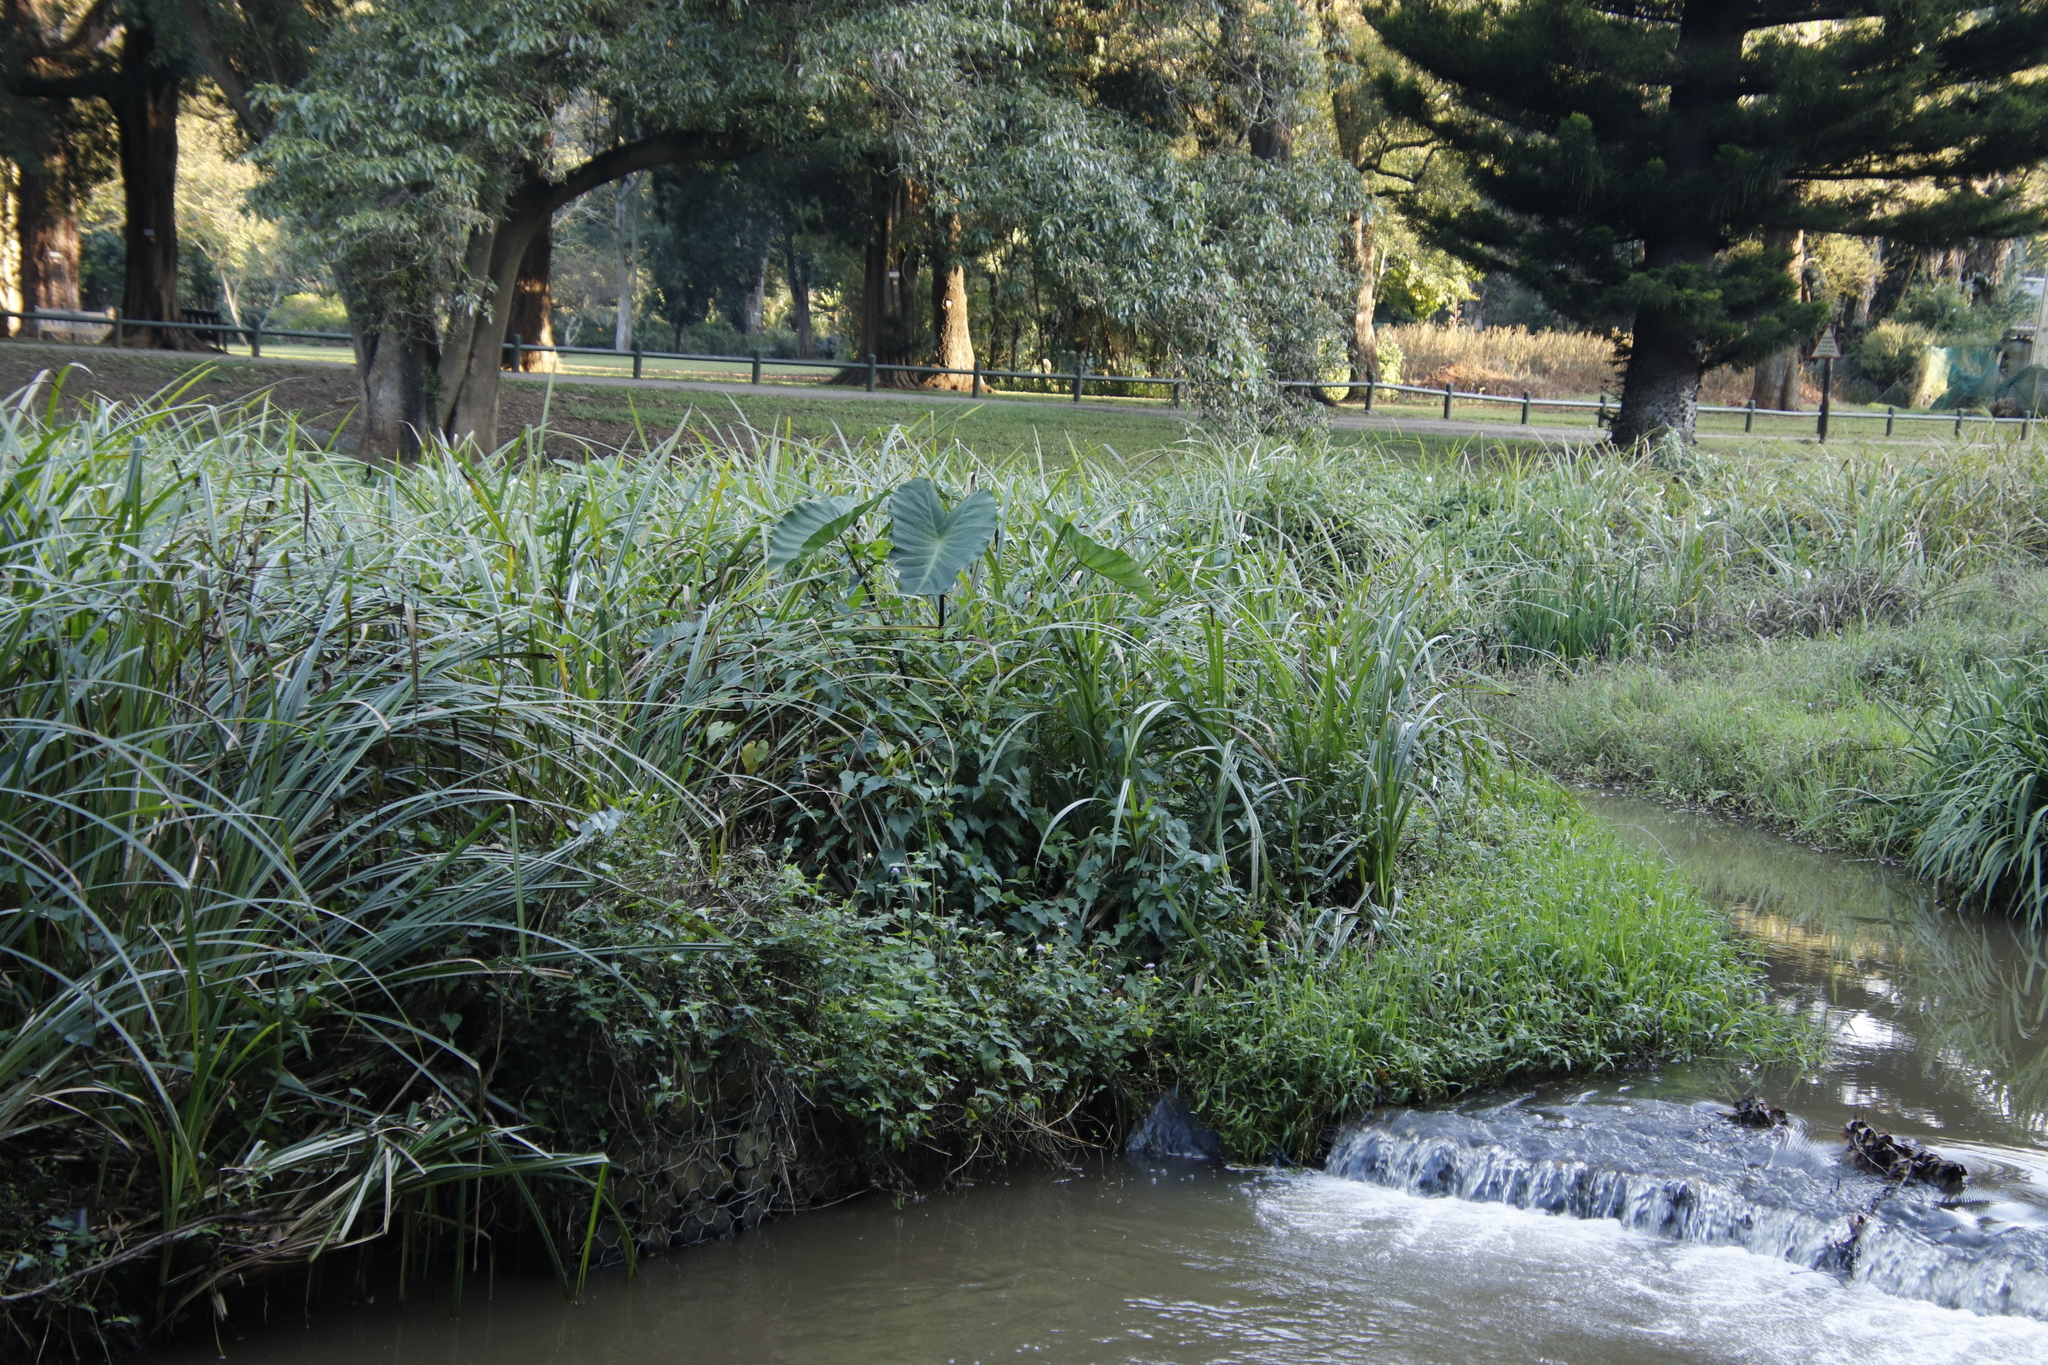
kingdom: Plantae
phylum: Tracheophyta
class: Liliopsida
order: Alismatales
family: Araceae
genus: Colocasia
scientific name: Colocasia esculenta
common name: Taro
